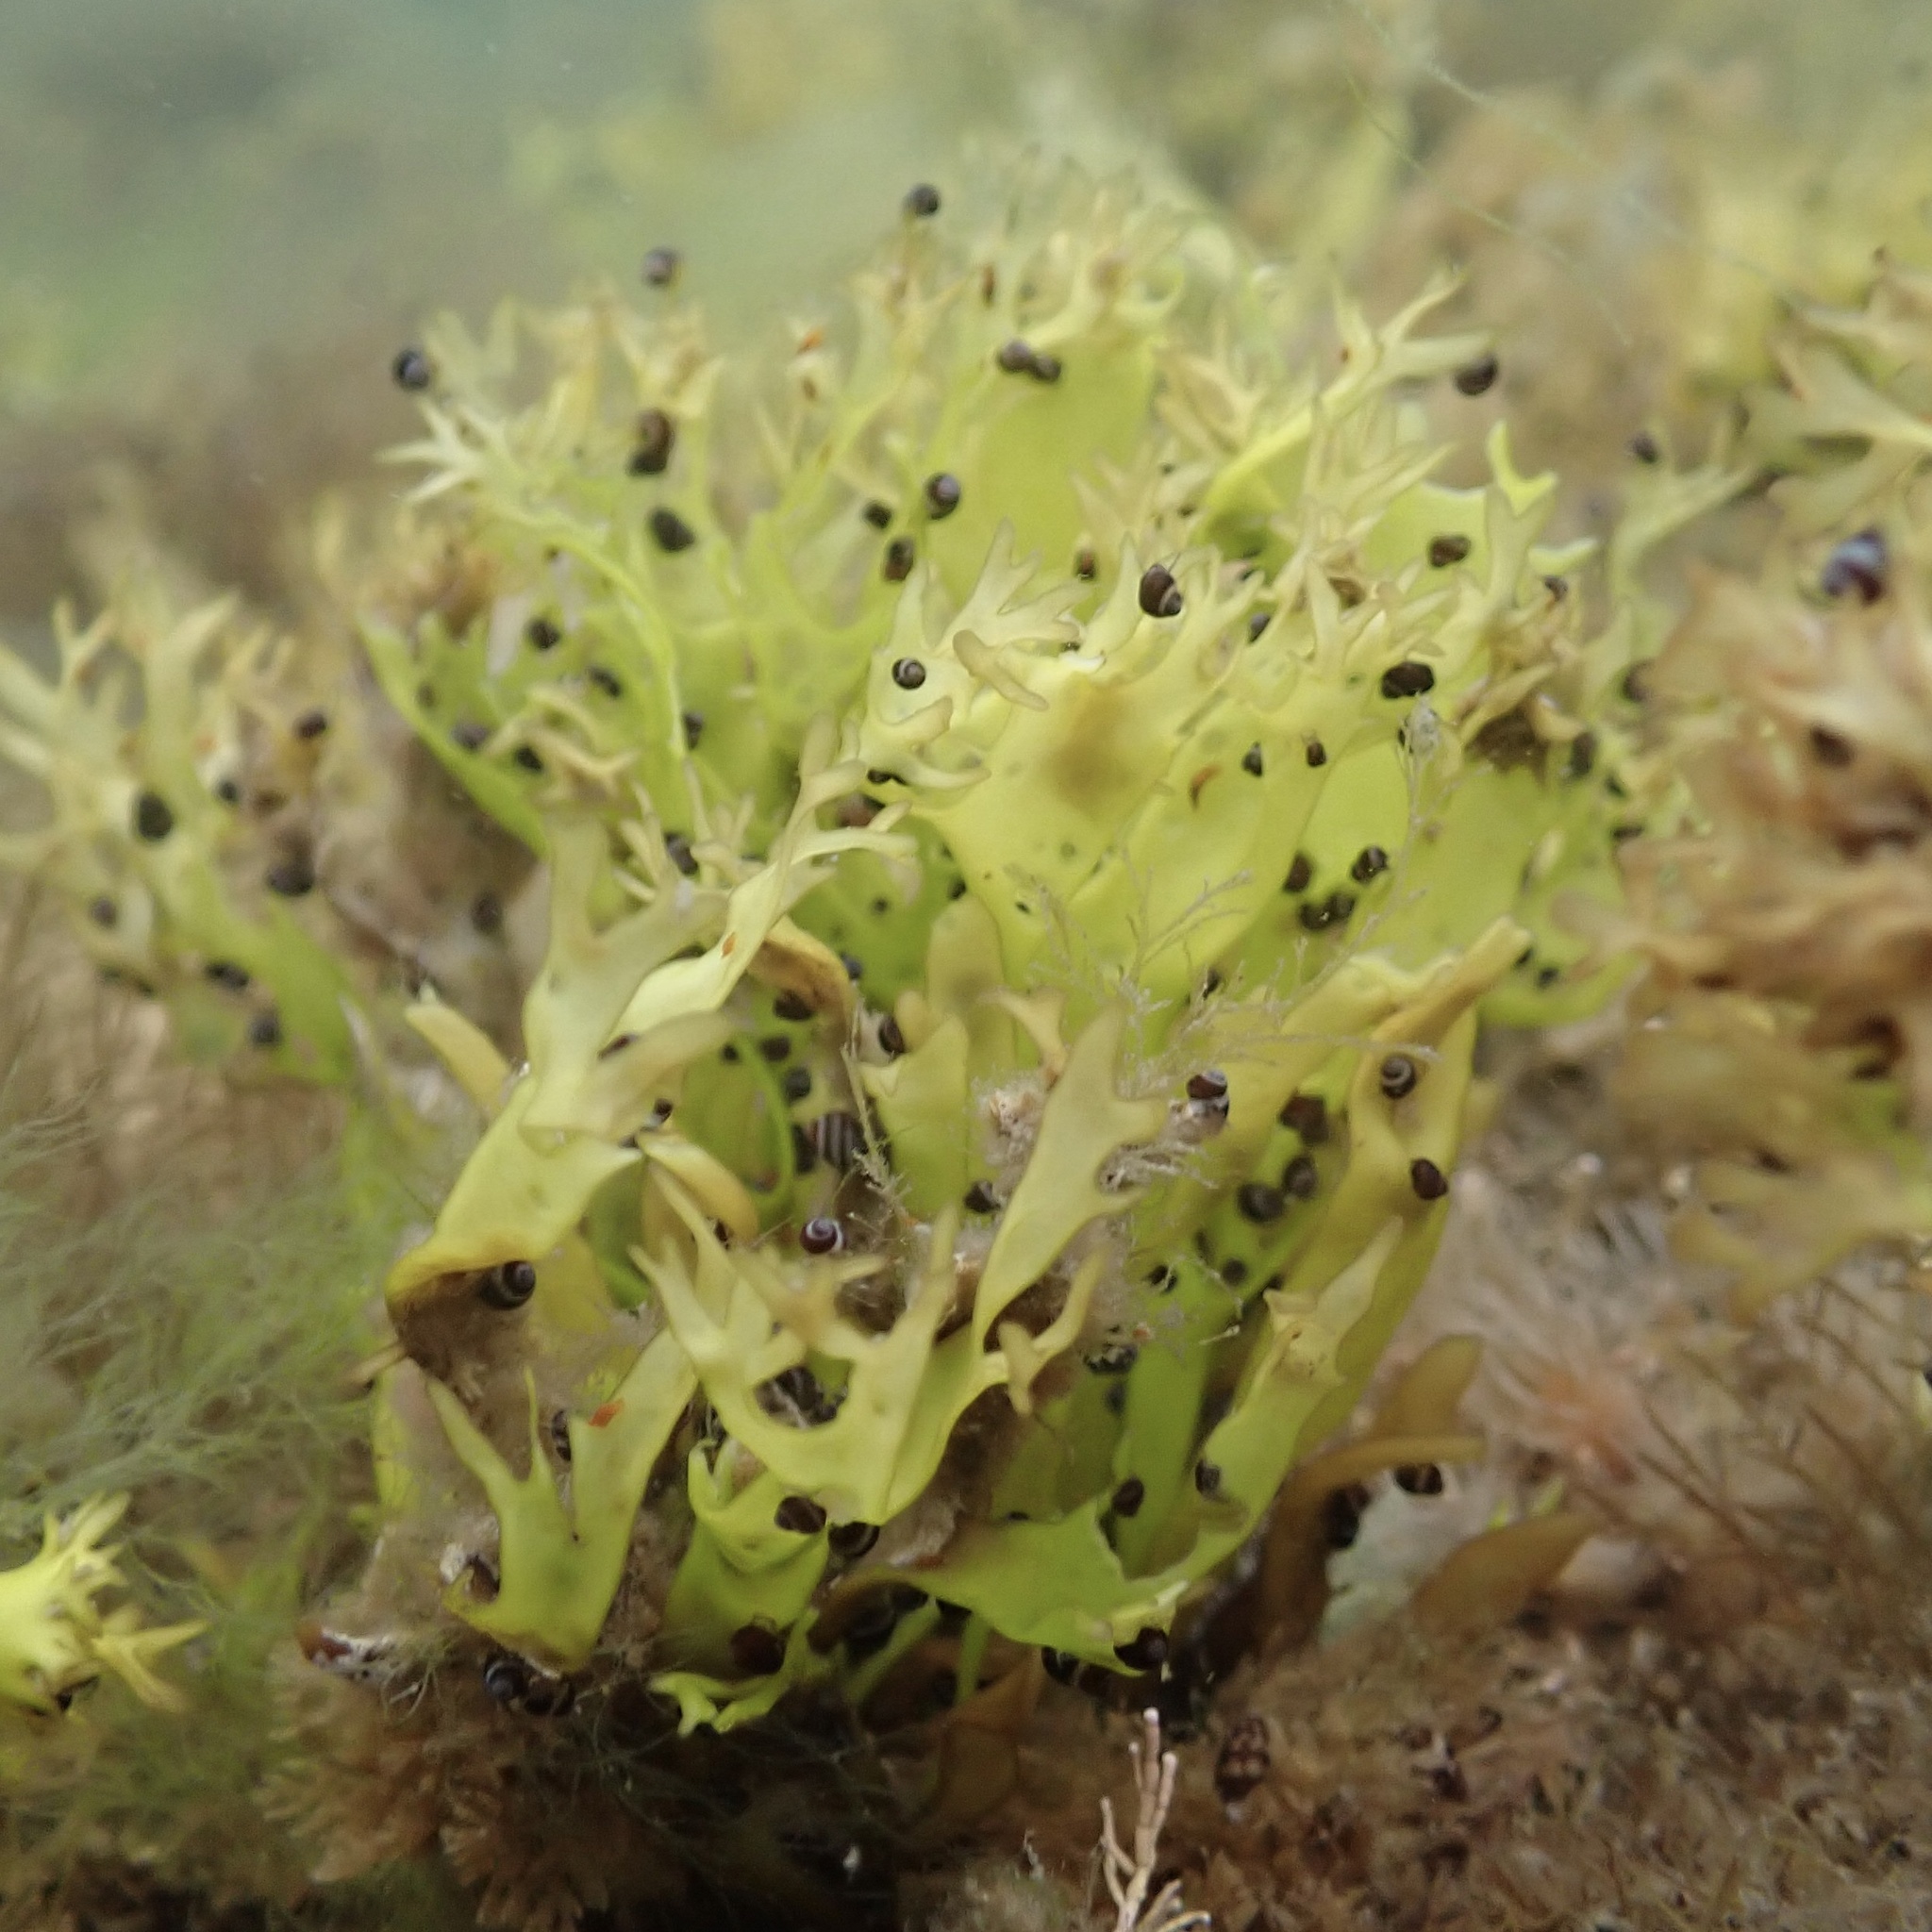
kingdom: Plantae
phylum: Rhodophyta
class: Florideophyceae
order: Gigartinales
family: Gigartinaceae
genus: Chondrus
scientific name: Chondrus crispus
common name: Carrageen
